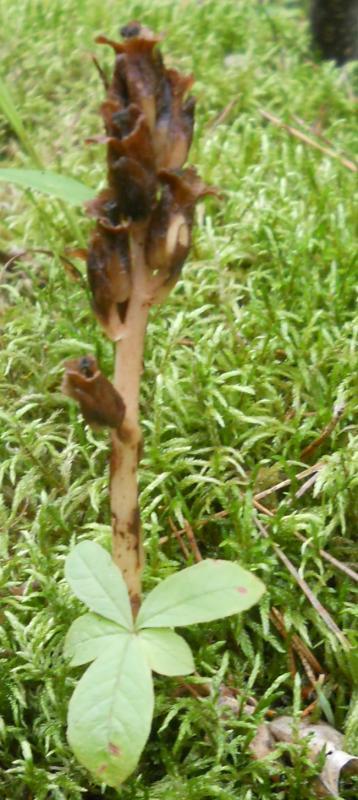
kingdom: Plantae
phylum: Tracheophyta
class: Magnoliopsida
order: Ericales
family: Ericaceae
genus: Hypopitys
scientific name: Hypopitys monotropa
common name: Yellow bird's-nest
